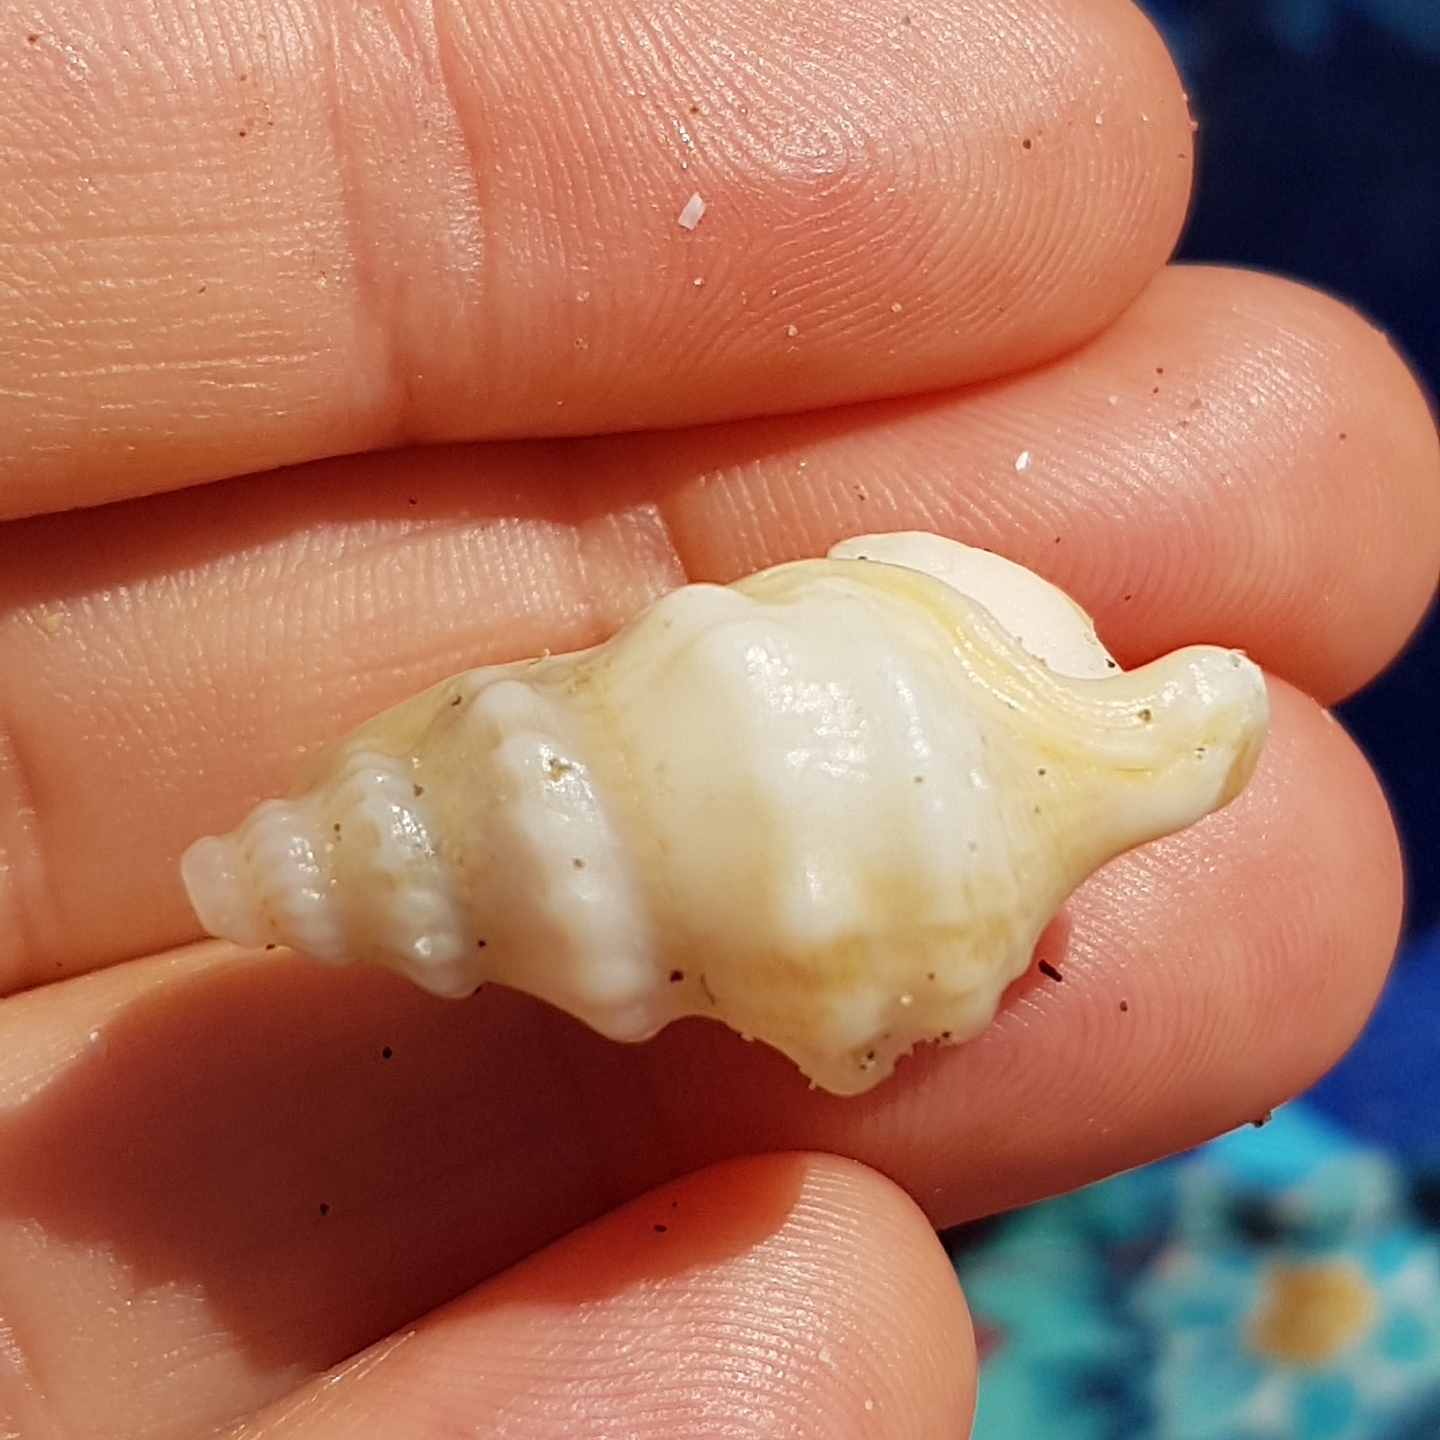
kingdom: Animalia
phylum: Mollusca
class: Gastropoda
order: Littorinimorpha
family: Aporrhaidae
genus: Aporrhais
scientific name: Aporrhais pespelecani
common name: Common pelican’s foot
